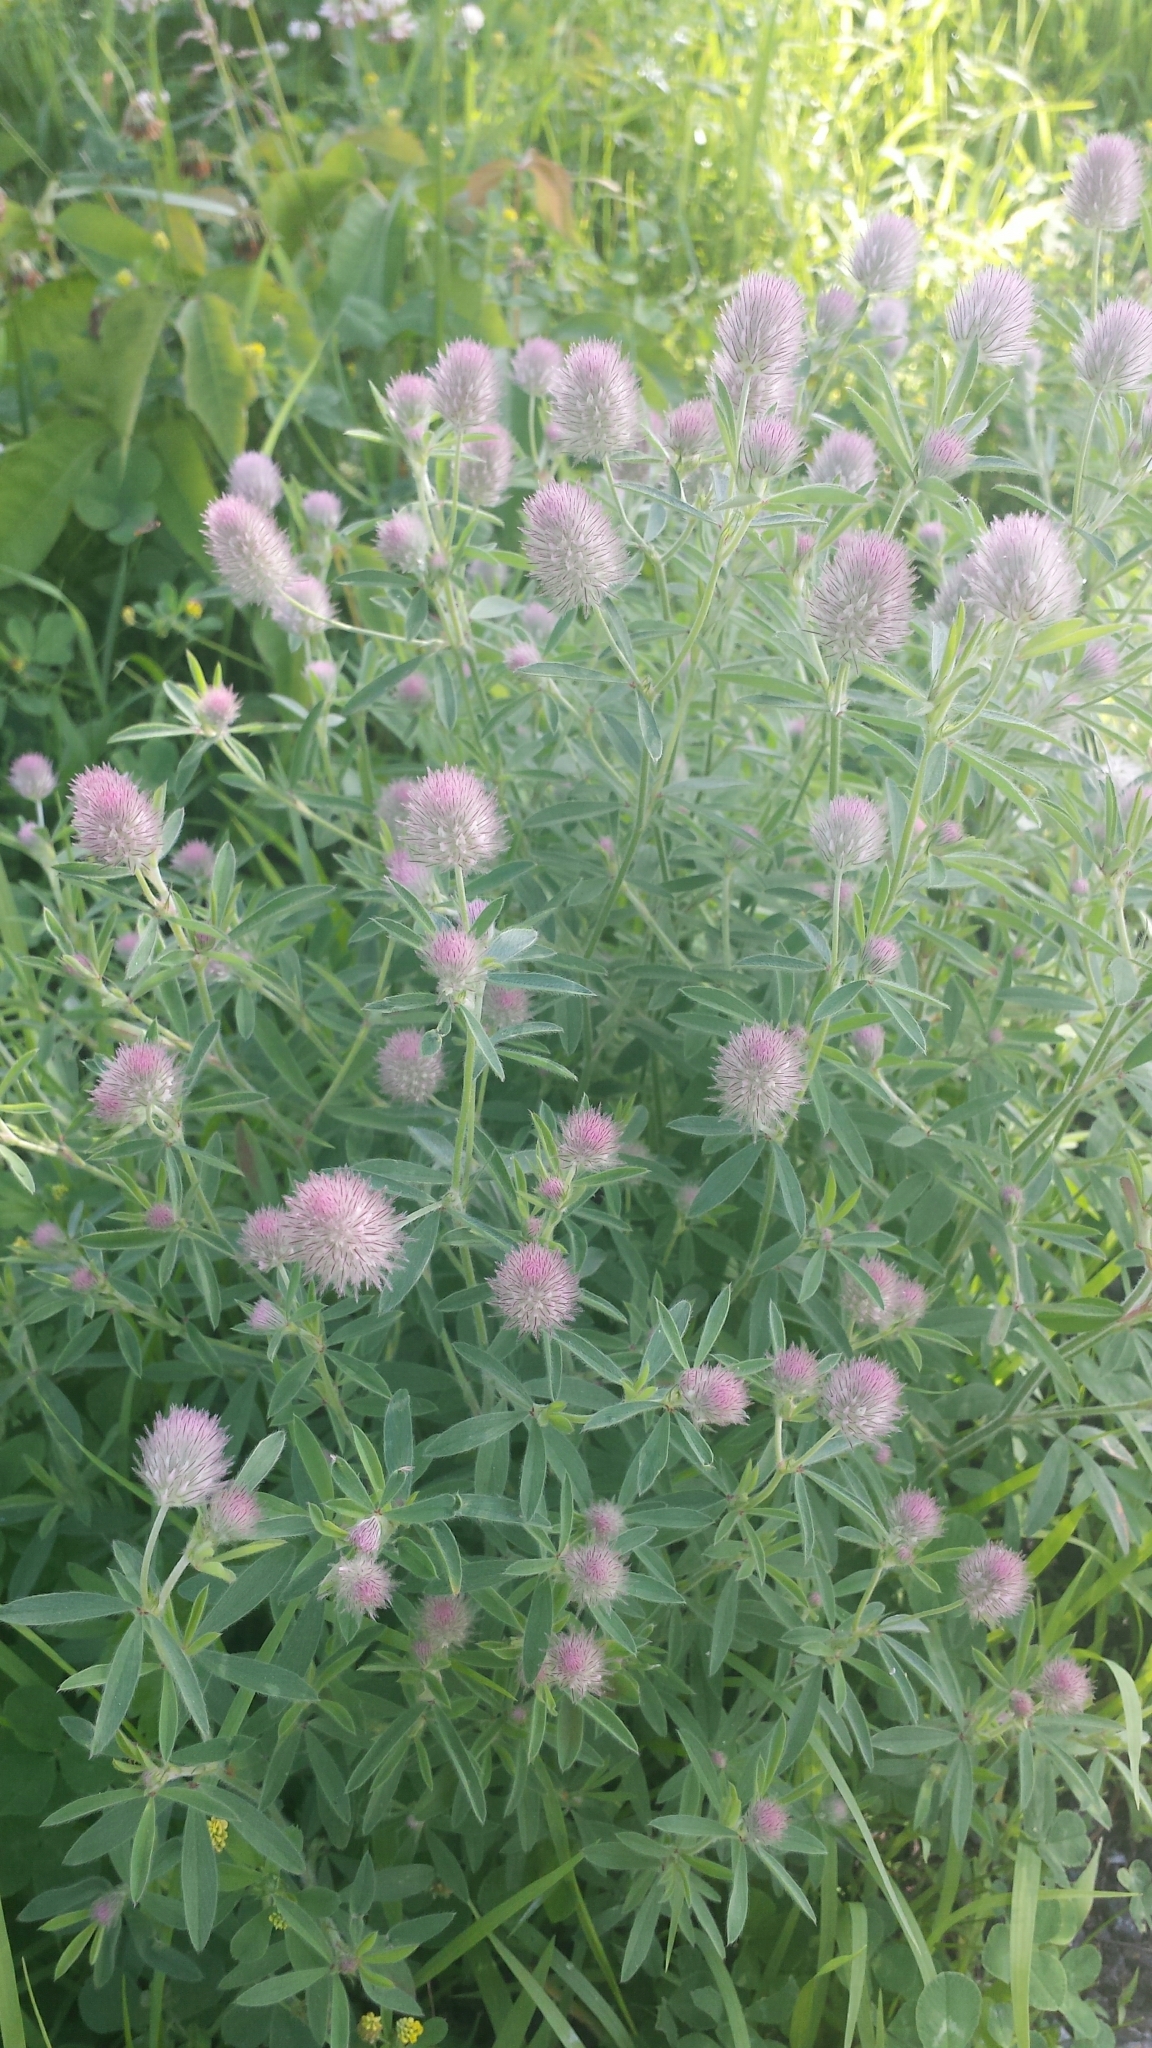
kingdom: Plantae
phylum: Tracheophyta
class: Magnoliopsida
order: Fabales
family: Fabaceae
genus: Trifolium
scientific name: Trifolium arvense
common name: Hare's-foot clover
